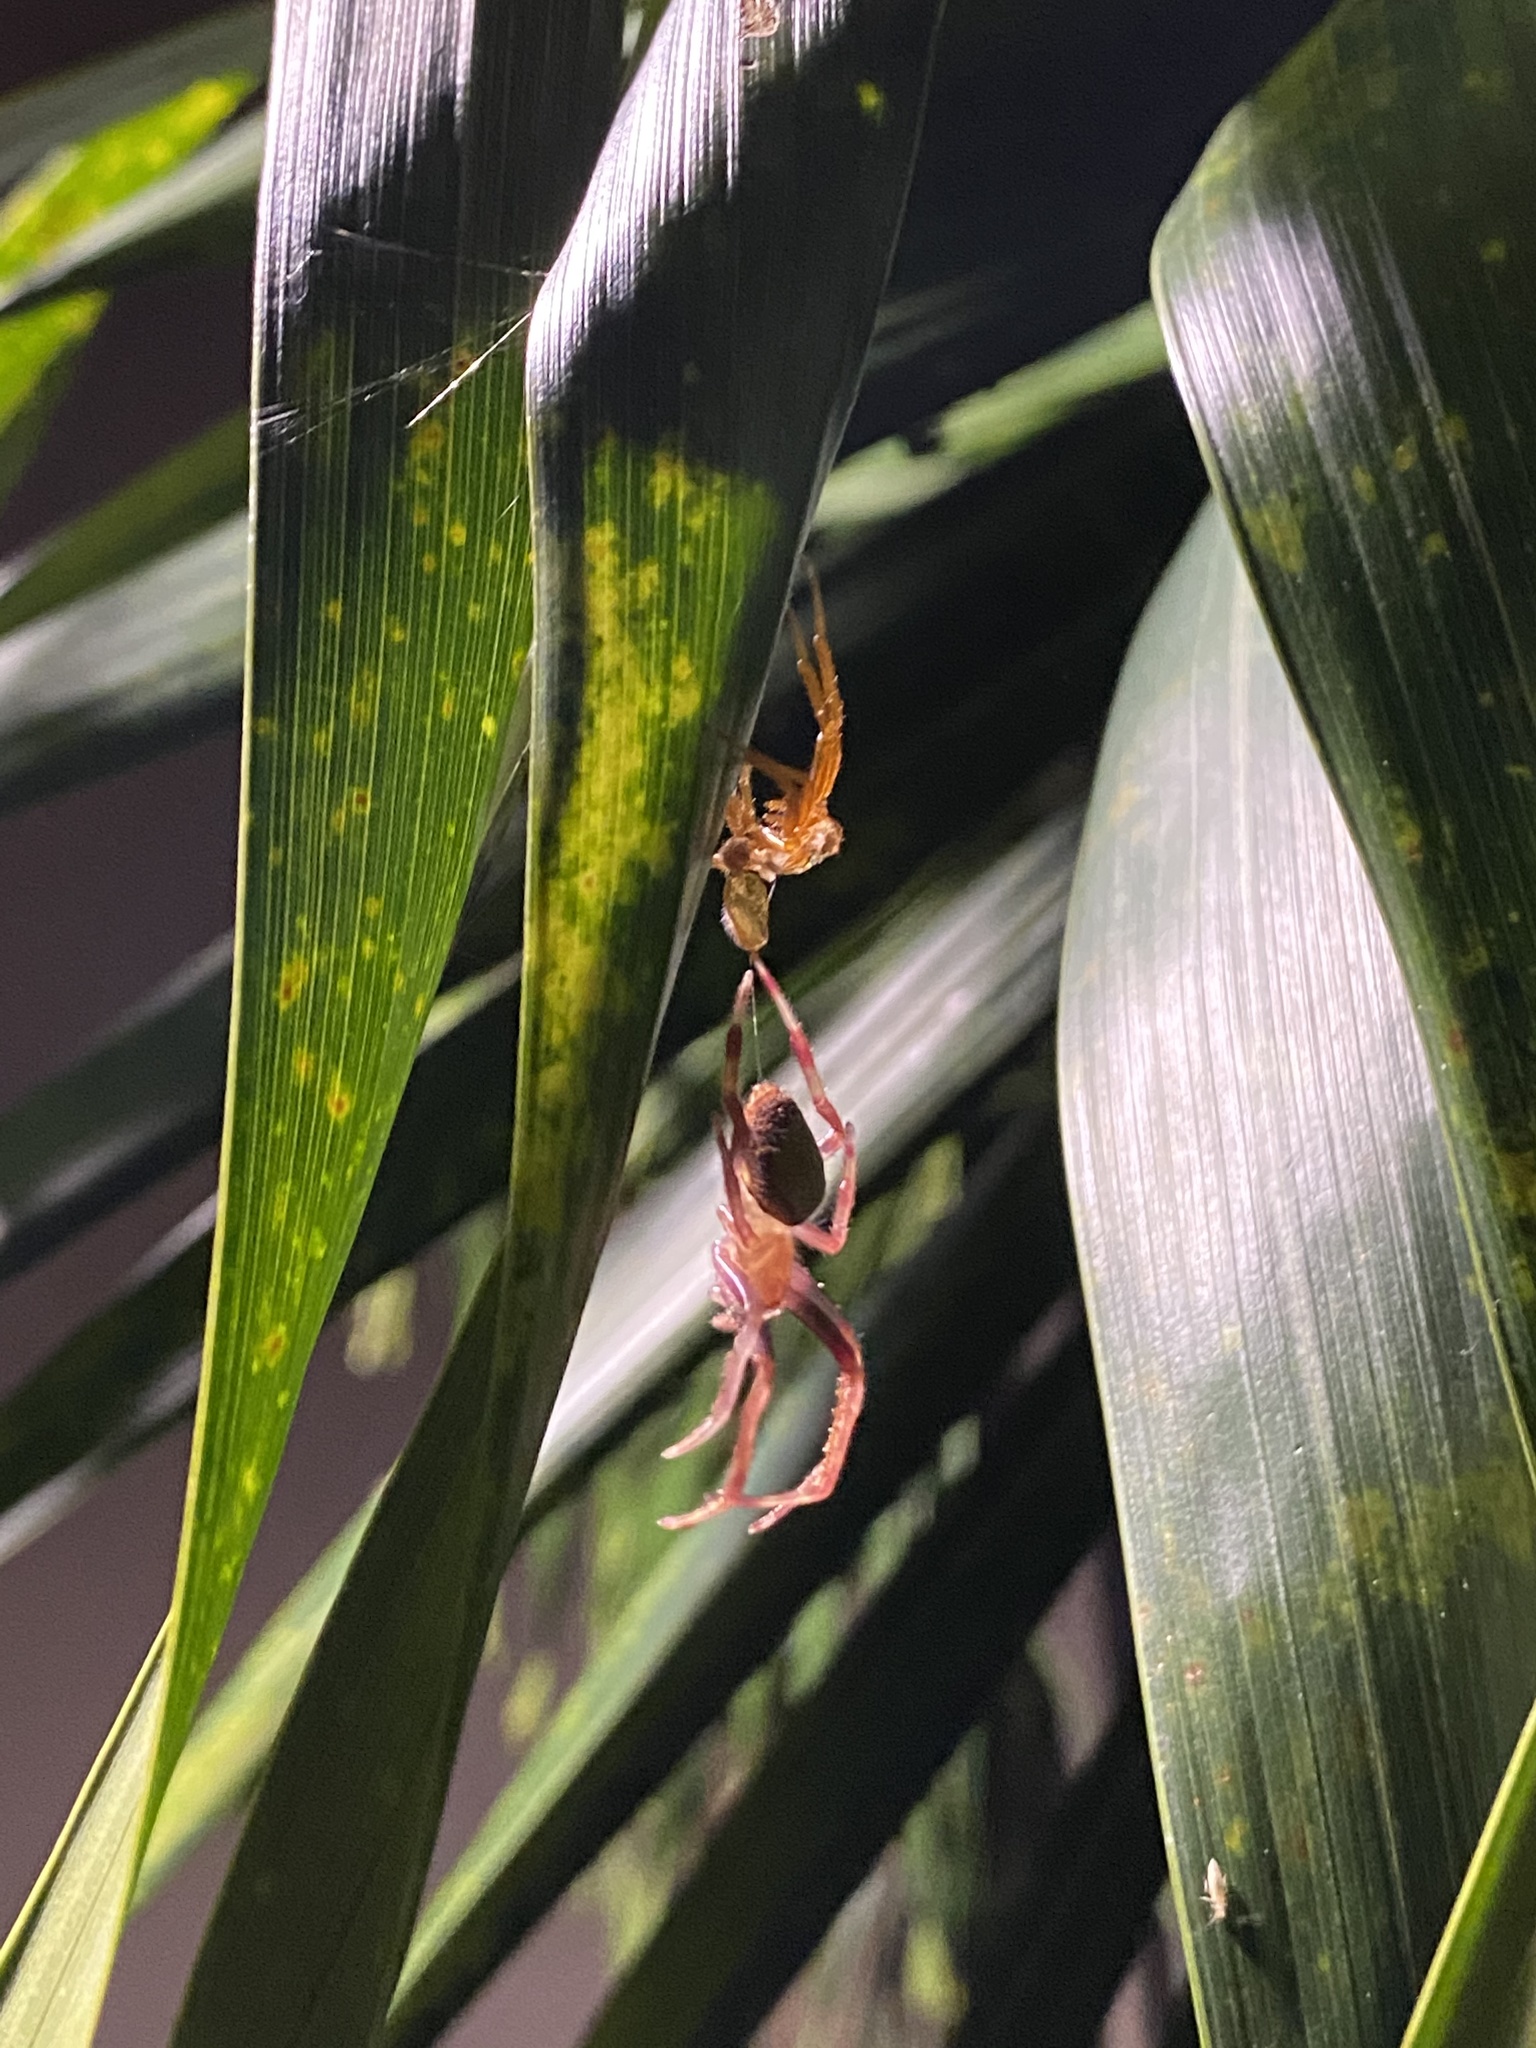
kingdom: Animalia
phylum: Arthropoda
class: Arachnida
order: Araneae
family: Araneidae
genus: Eriophora
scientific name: Eriophora ravilla
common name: Orb weavers
